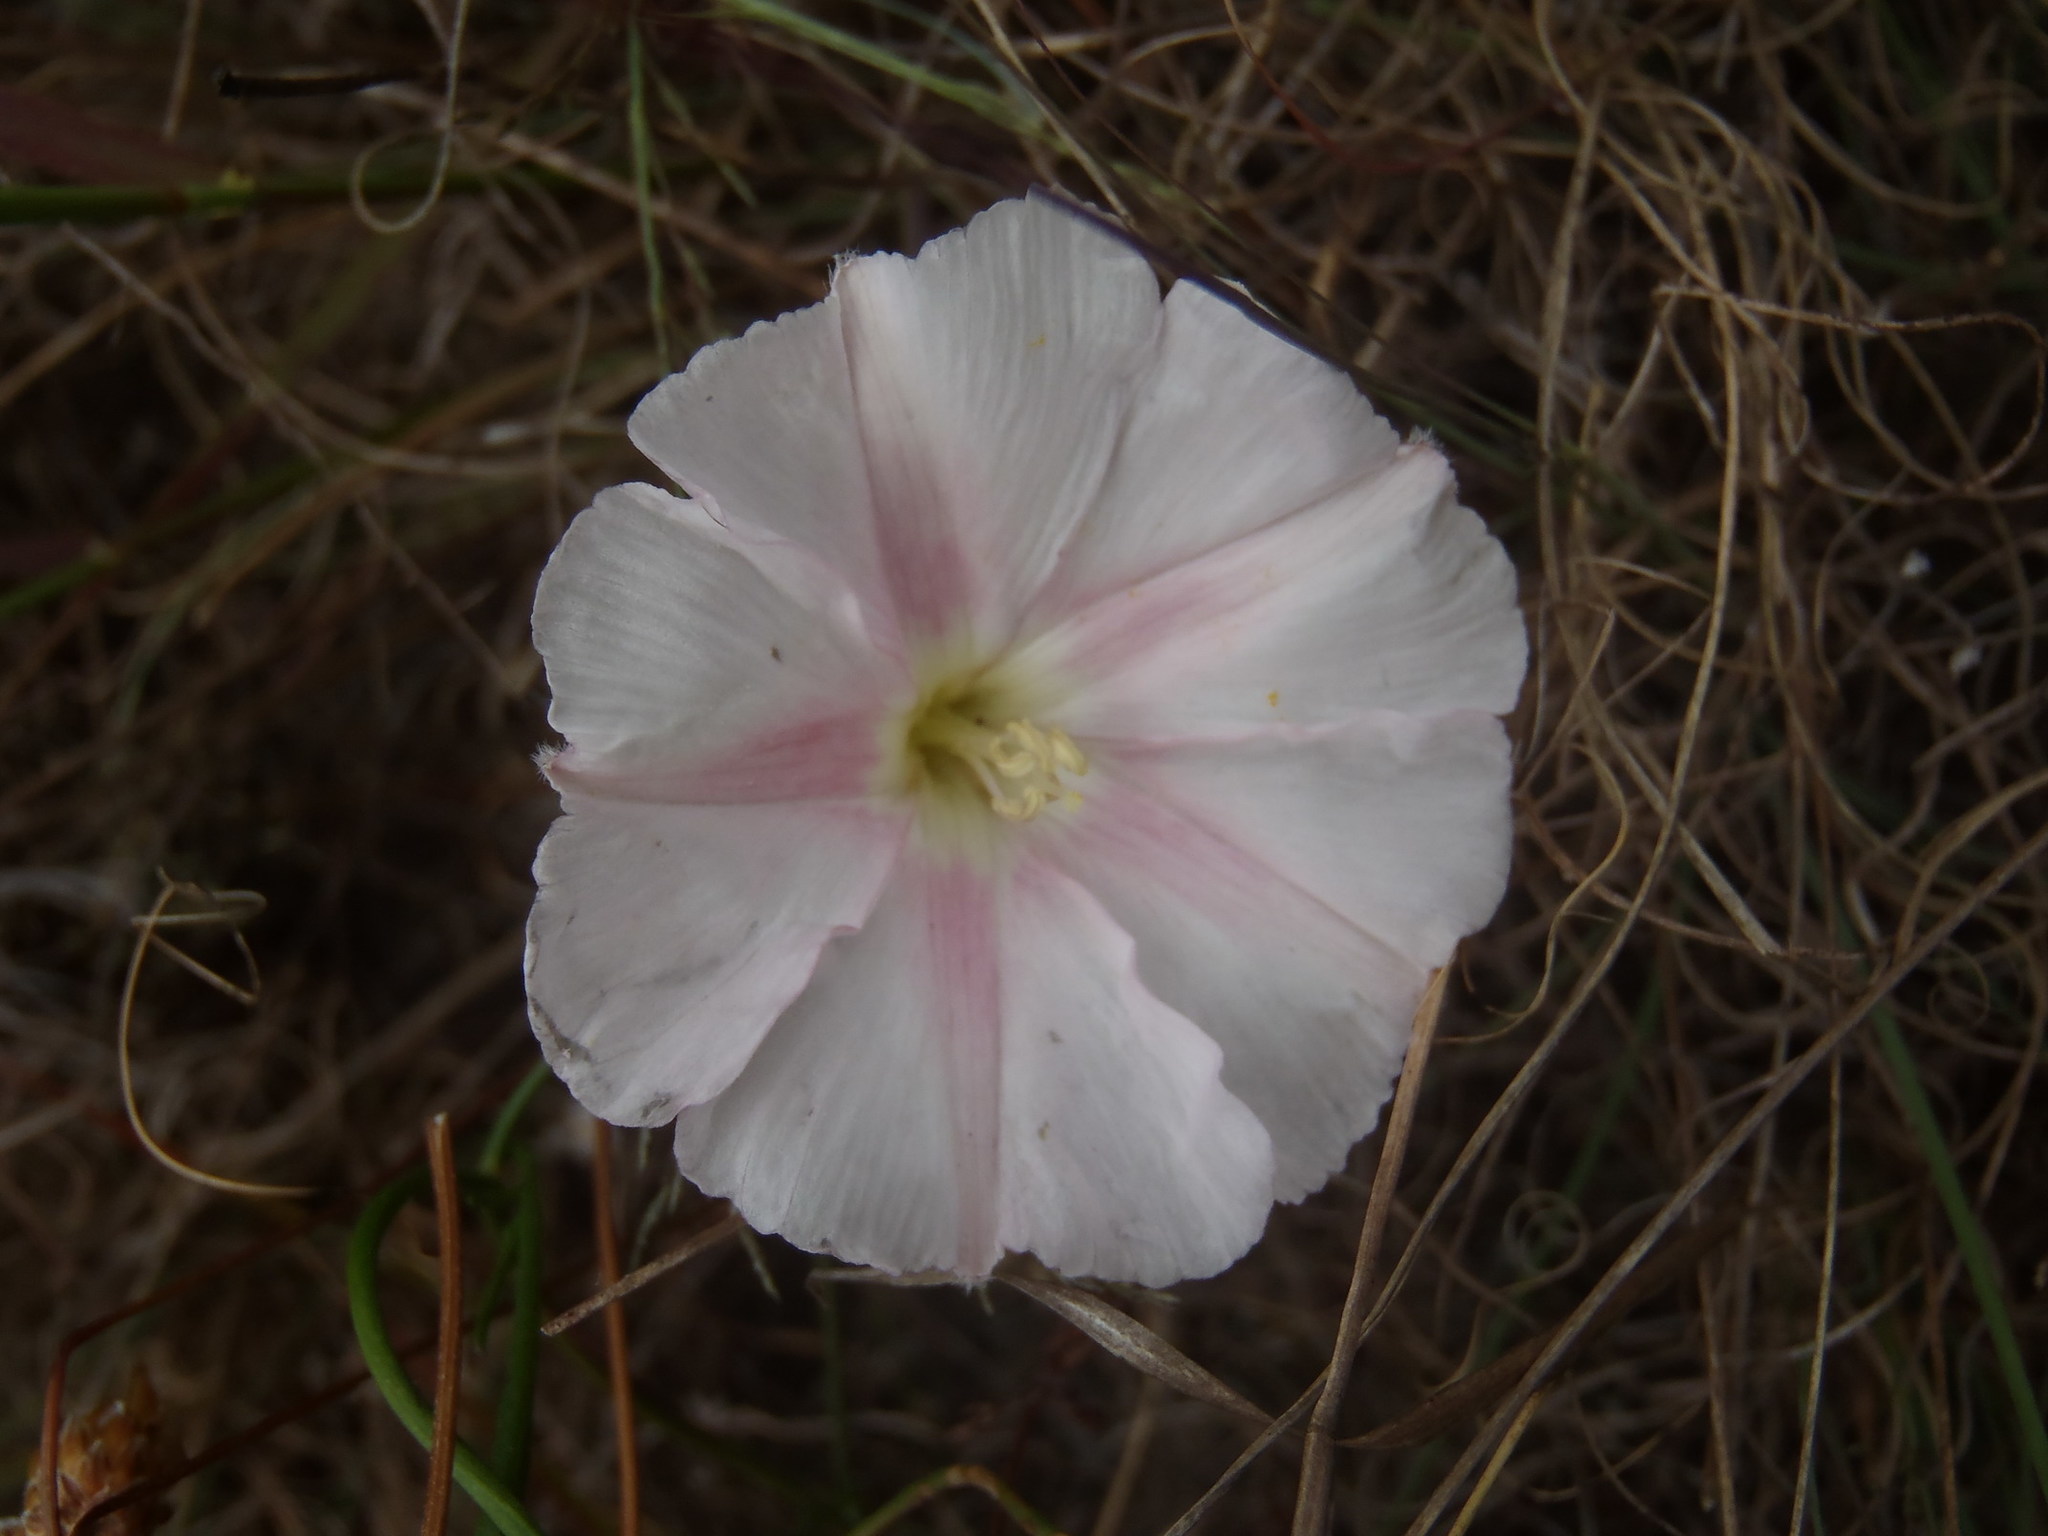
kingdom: Plantae
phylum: Tracheophyta
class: Magnoliopsida
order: Solanales
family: Convolvulaceae
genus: Convolvulus
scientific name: Convolvulus capensis
